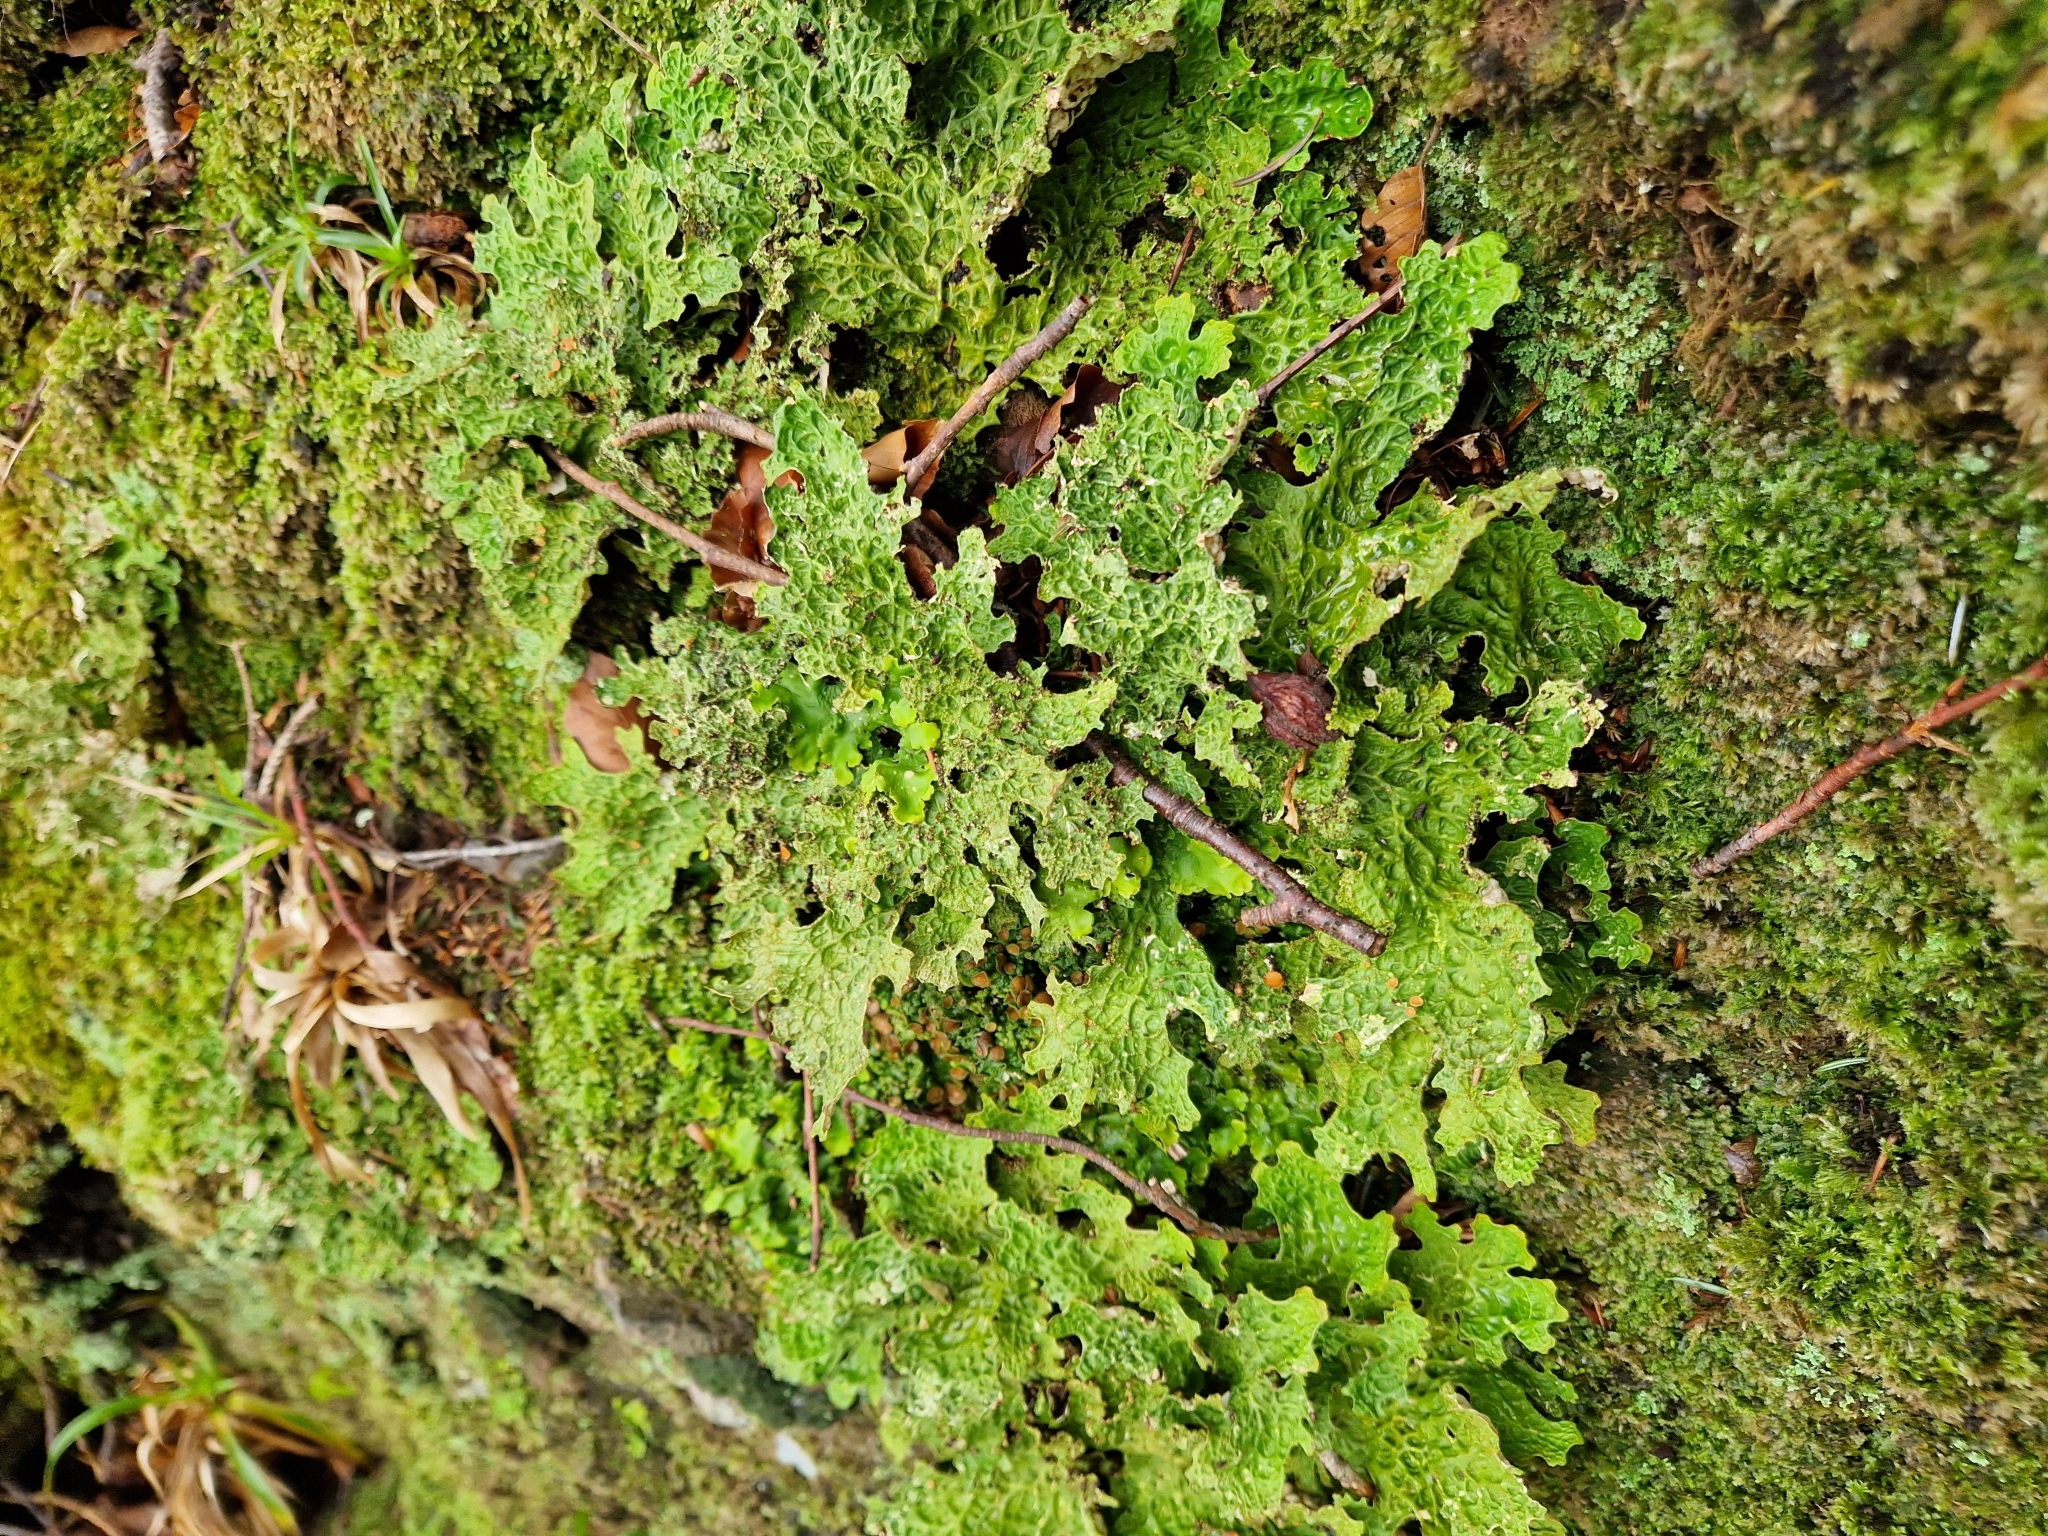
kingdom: Fungi
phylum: Ascomycota
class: Lecanoromycetes
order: Peltigerales
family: Lobariaceae
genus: Lobaria
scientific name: Lobaria pulmonaria
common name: Lungwort
